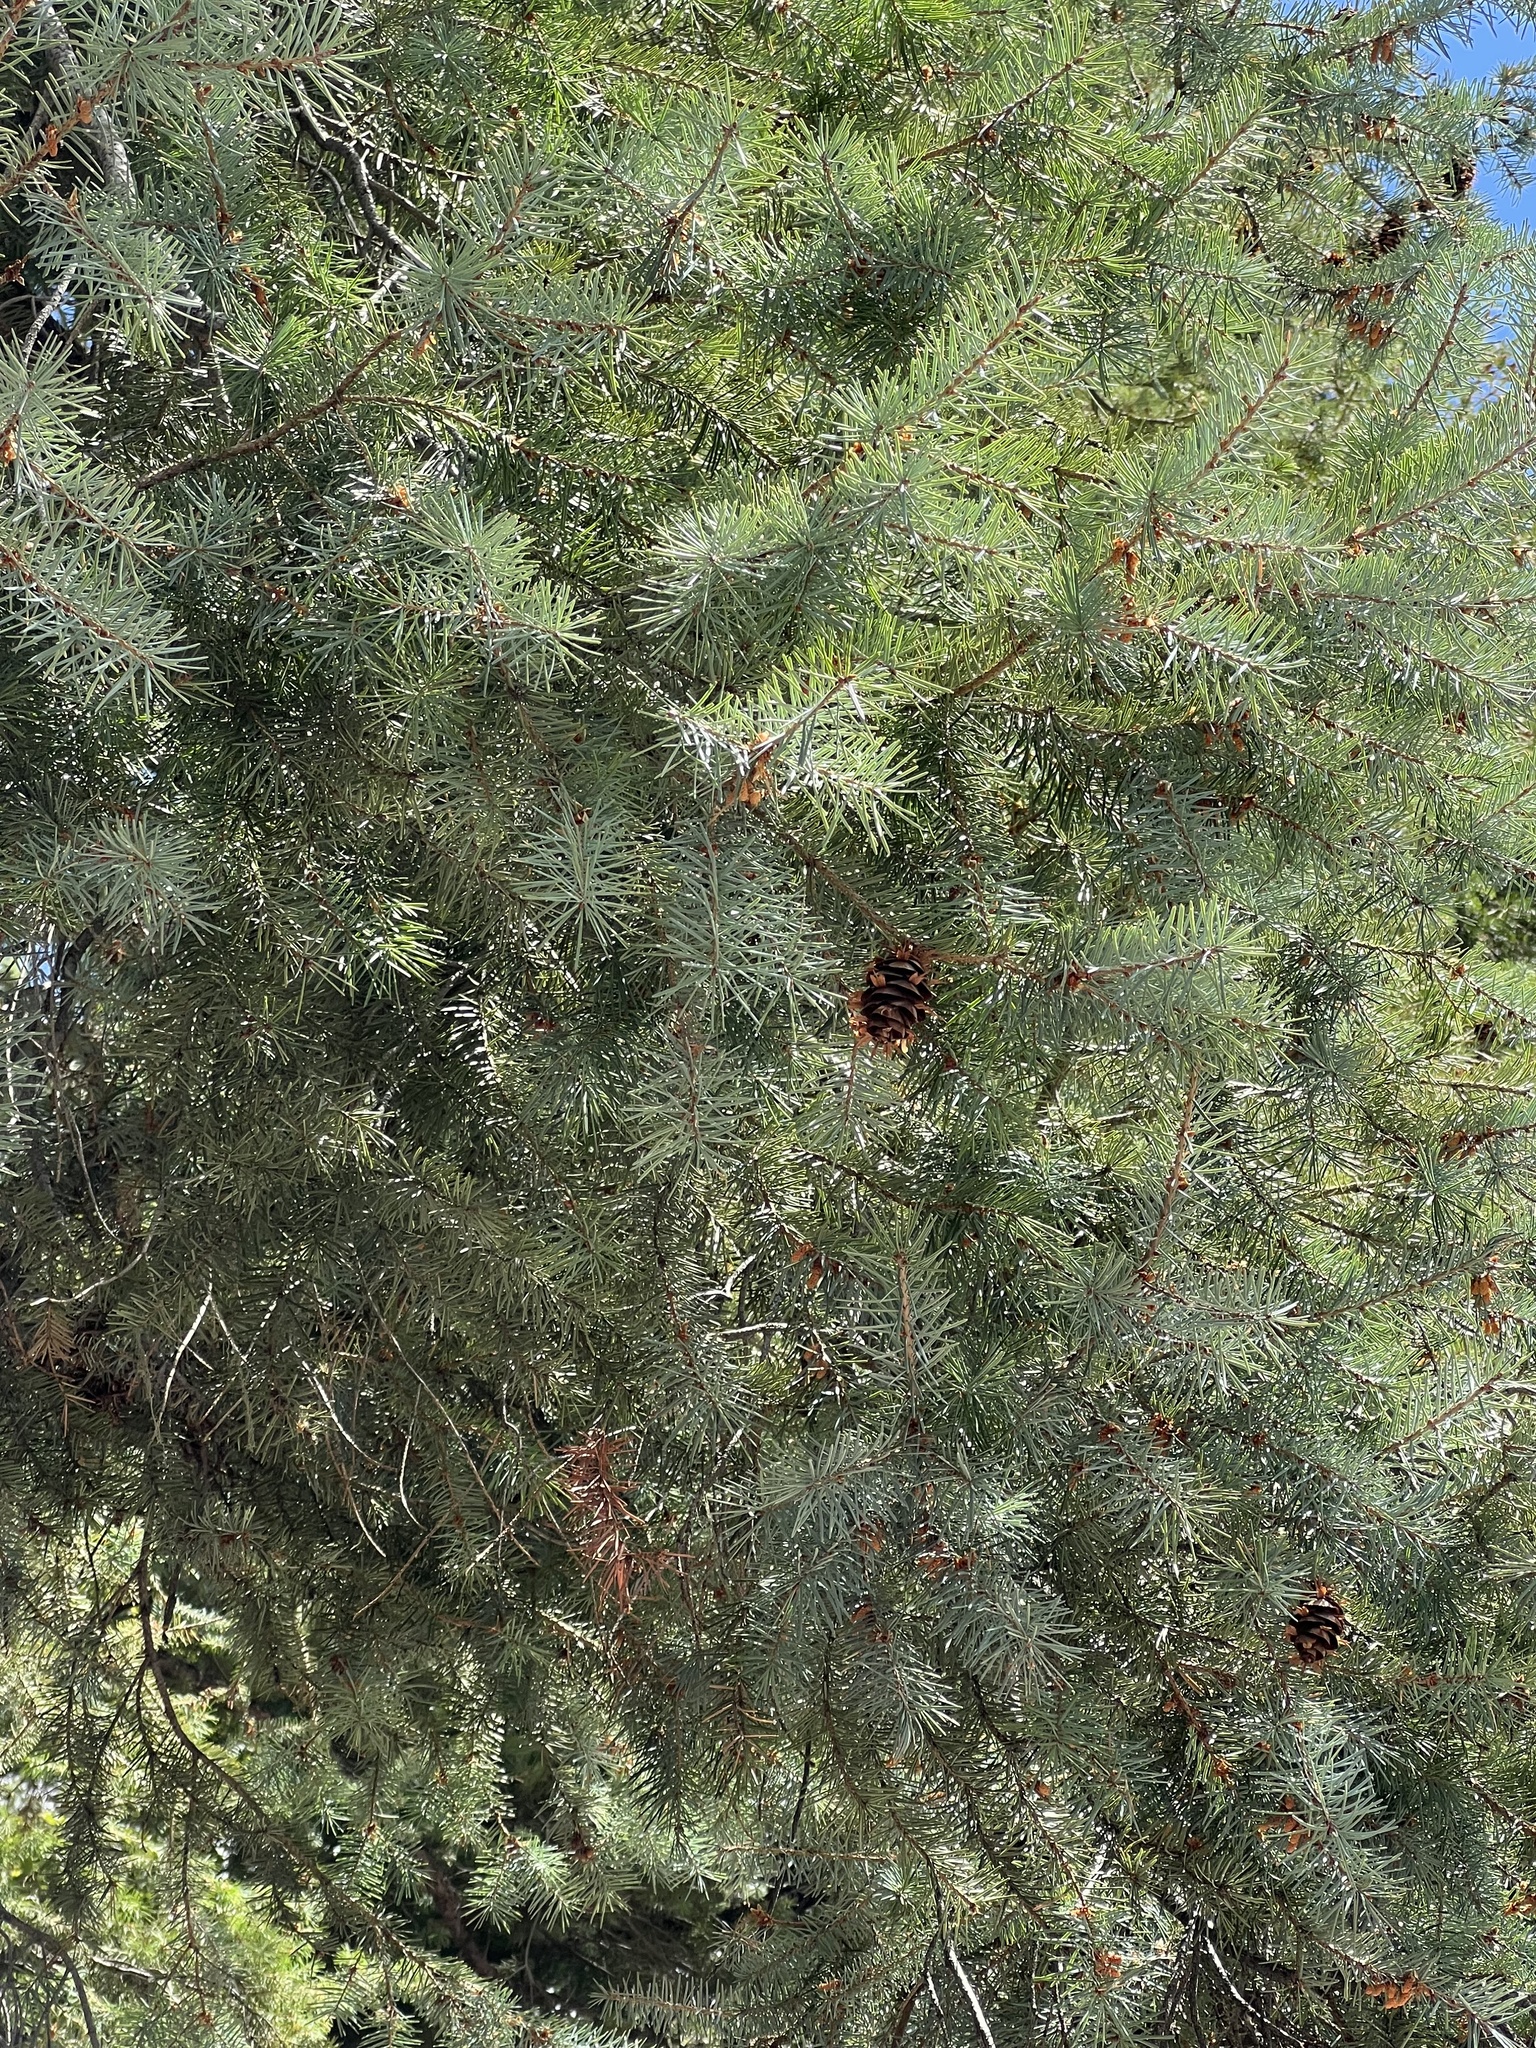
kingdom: Plantae
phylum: Tracheophyta
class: Pinopsida
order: Pinales
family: Pinaceae
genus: Pseudotsuga
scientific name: Pseudotsuga menziesii
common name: Douglas fir
